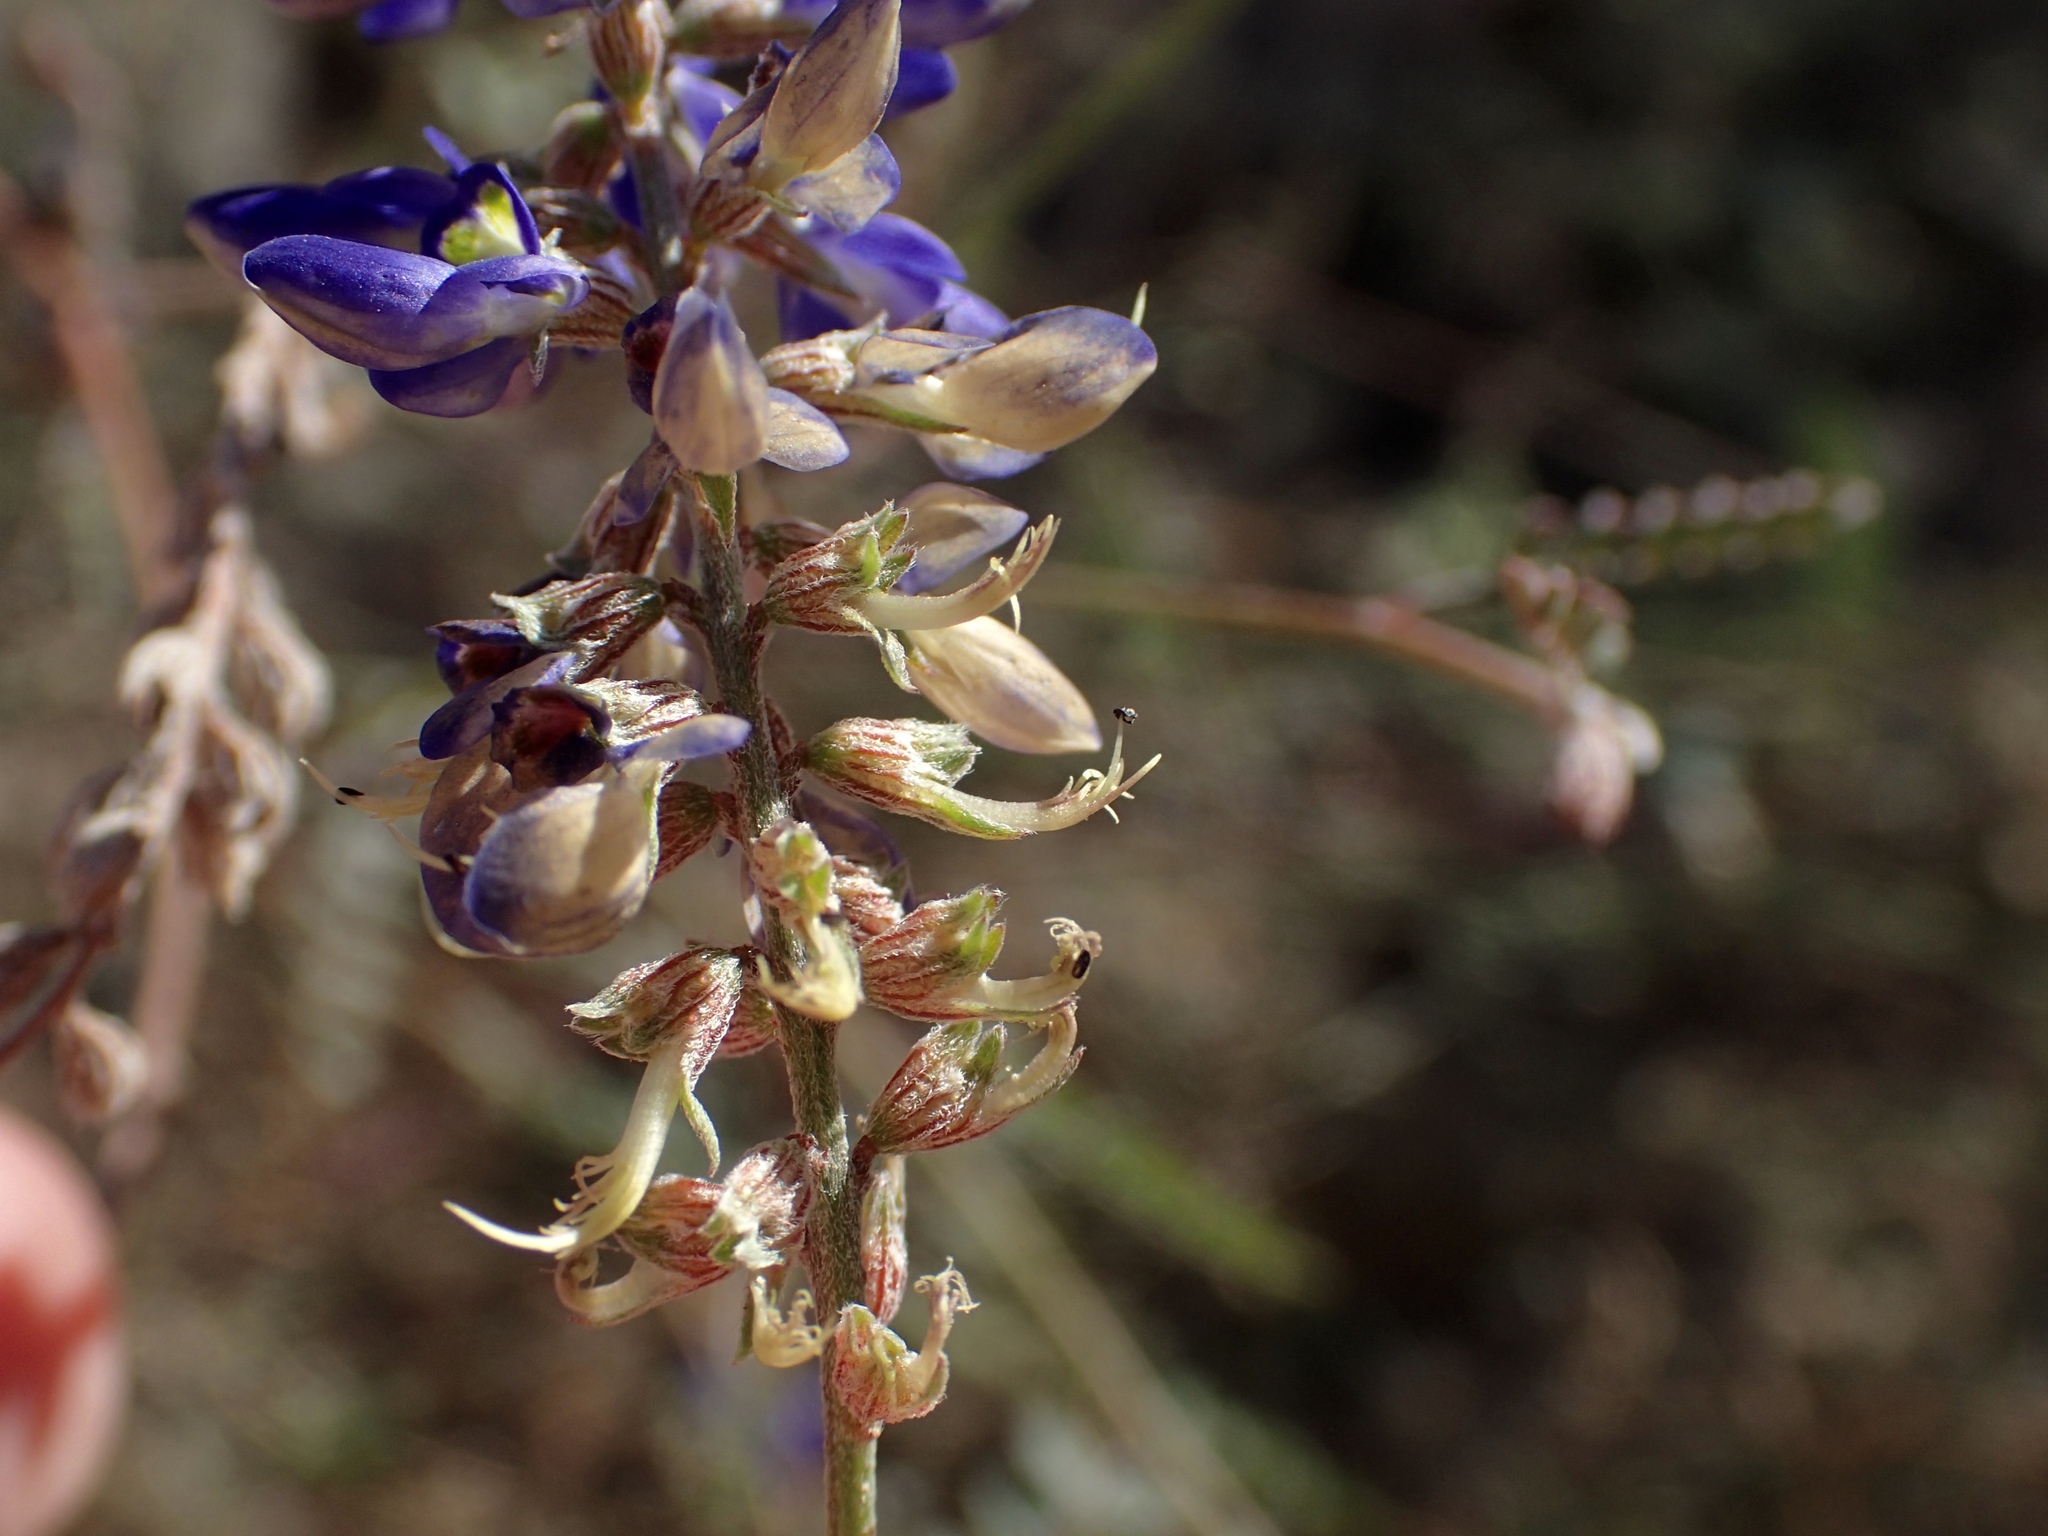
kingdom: Plantae
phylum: Tracheophyta
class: Magnoliopsida
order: Fabales
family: Fabaceae
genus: Marina
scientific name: Marina parryi
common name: Parry's marina
